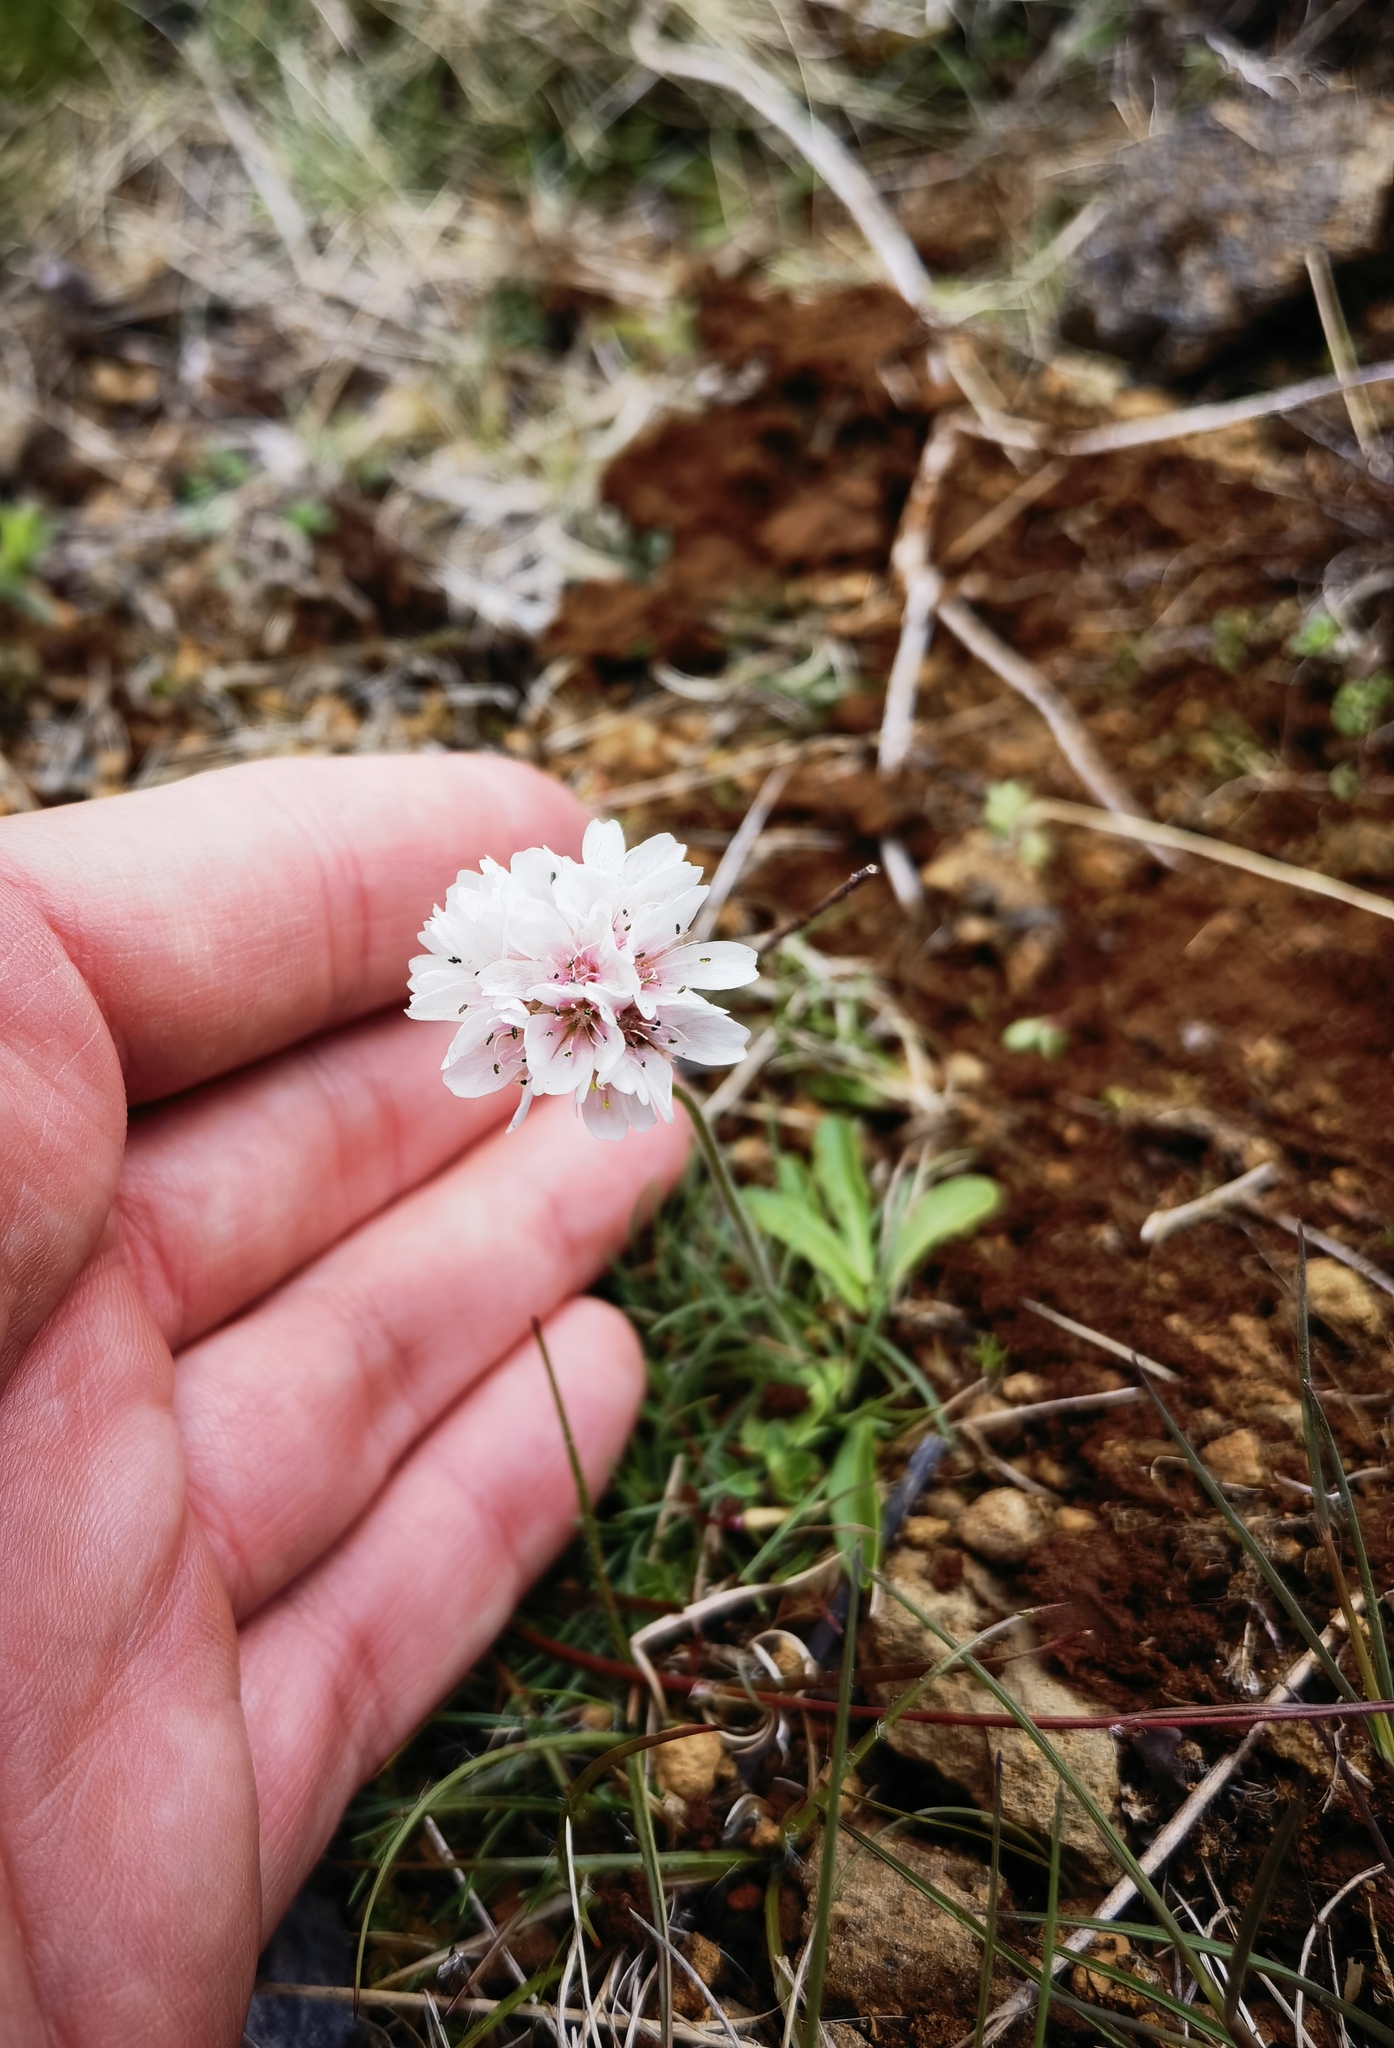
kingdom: Plantae
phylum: Tracheophyta
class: Magnoliopsida
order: Caryophyllales
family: Plumbaginaceae
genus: Armeria
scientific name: Armeria maritima
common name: Thrift
